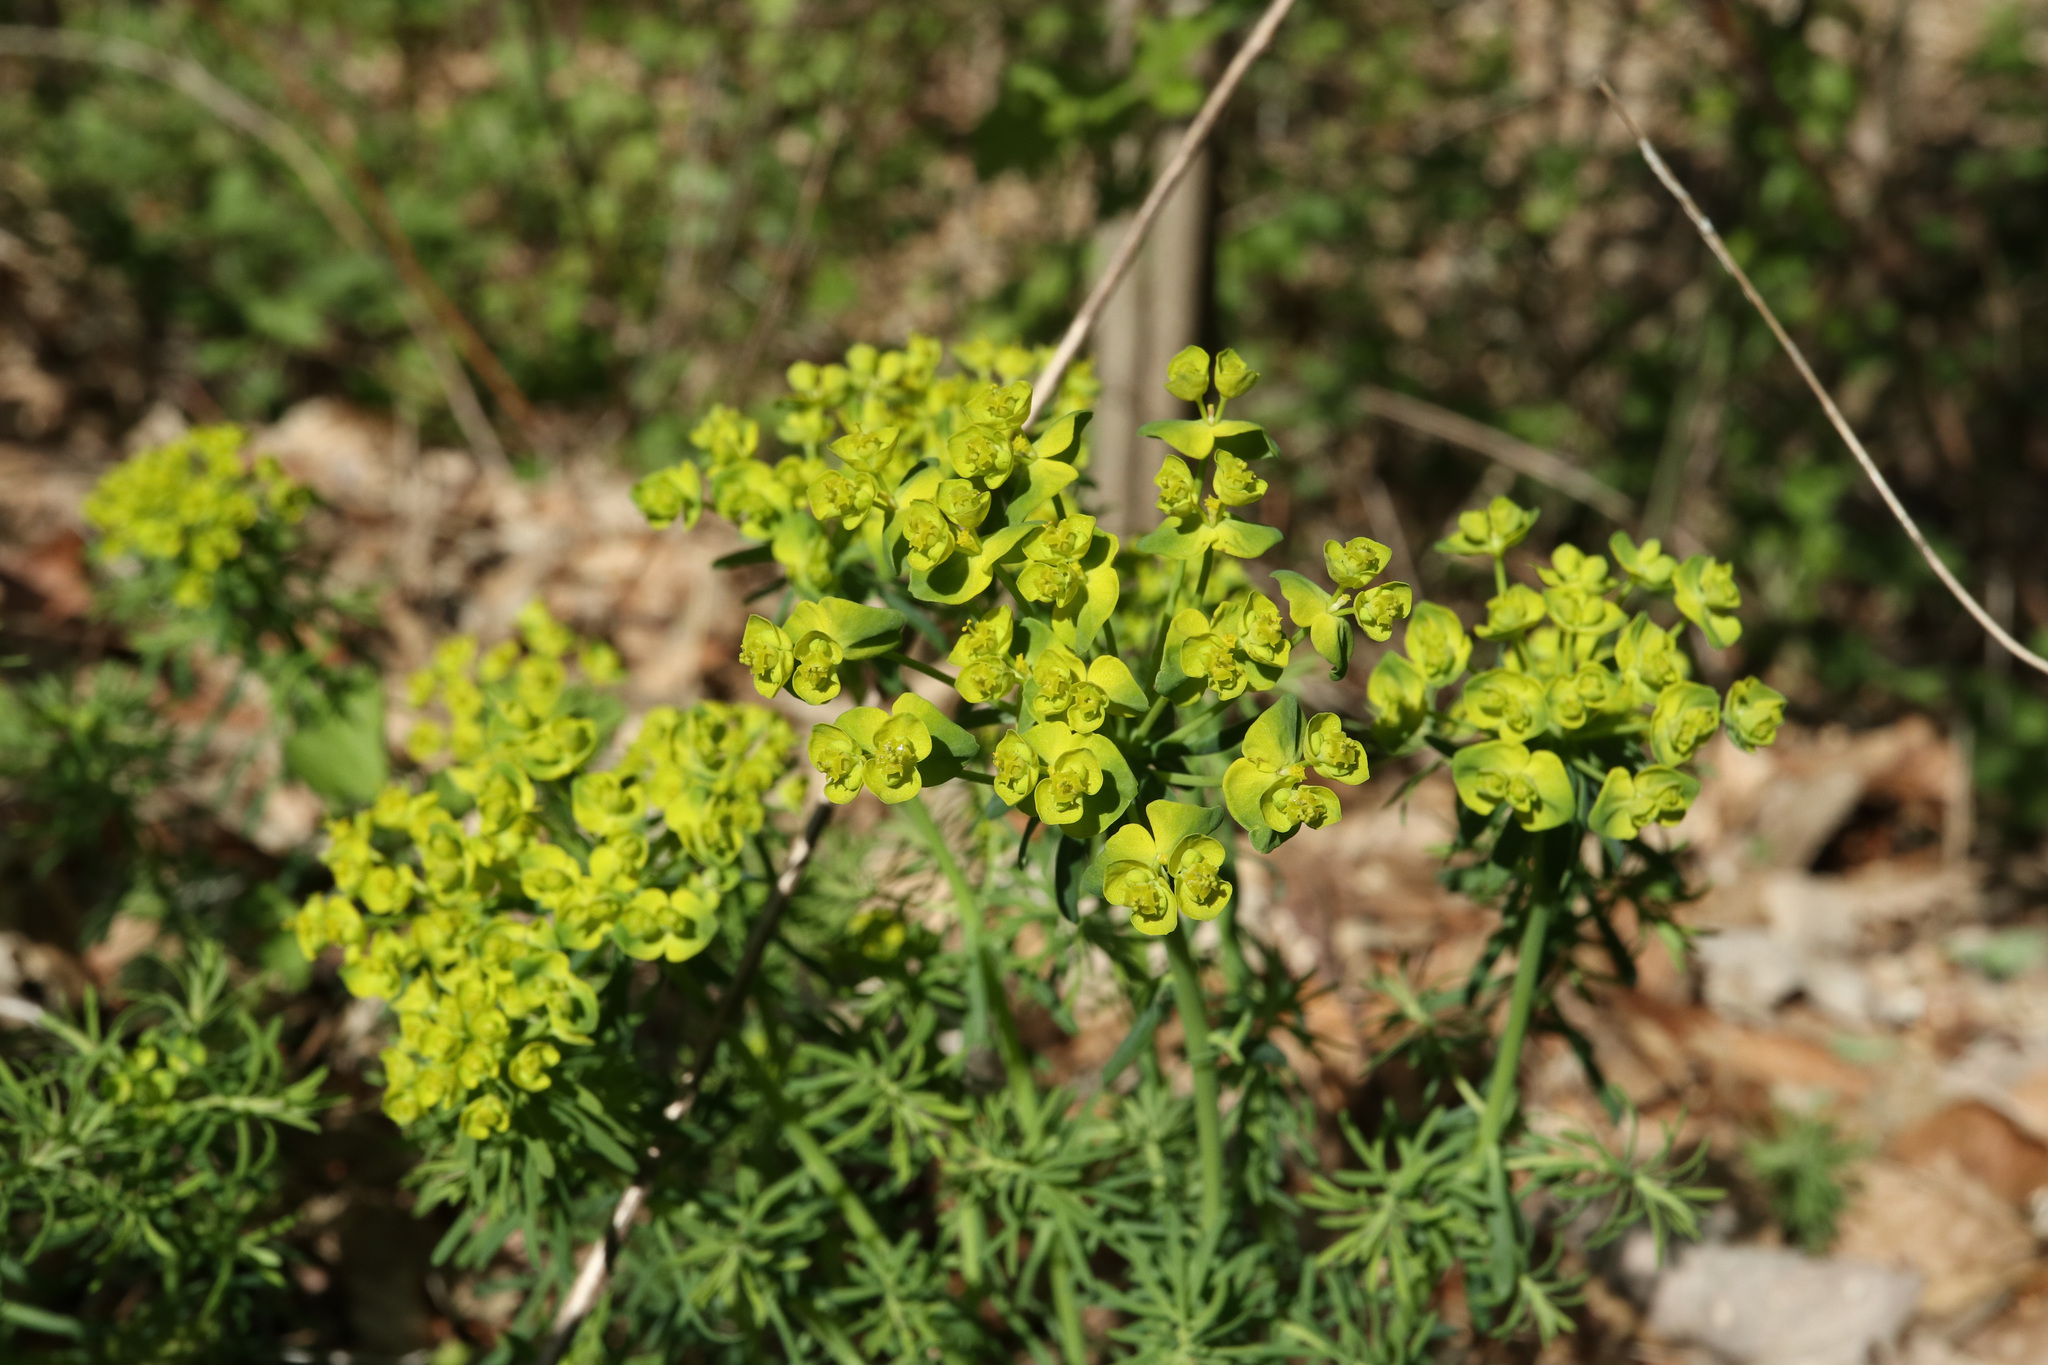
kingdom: Plantae
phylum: Tracheophyta
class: Magnoliopsida
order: Malpighiales
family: Euphorbiaceae
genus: Euphorbia
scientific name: Euphorbia cyparissias
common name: Cypress spurge
